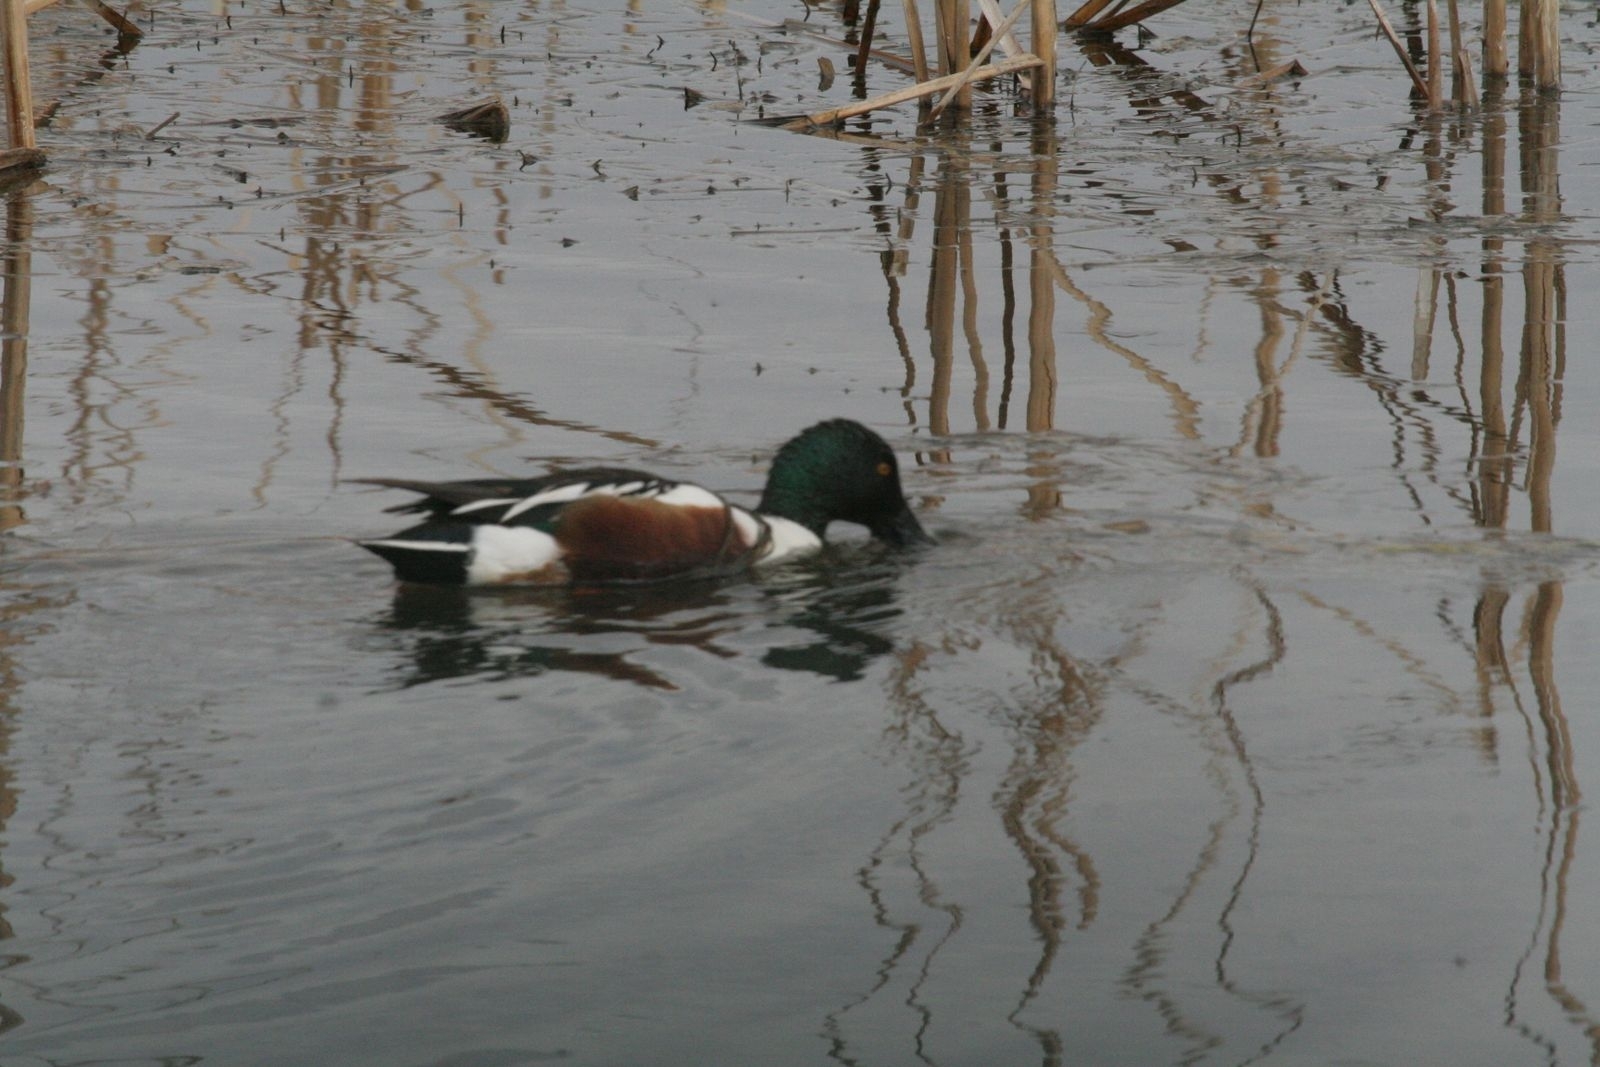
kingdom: Animalia
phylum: Chordata
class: Aves
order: Anseriformes
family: Anatidae
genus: Spatula
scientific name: Spatula clypeata
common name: Northern shoveler
